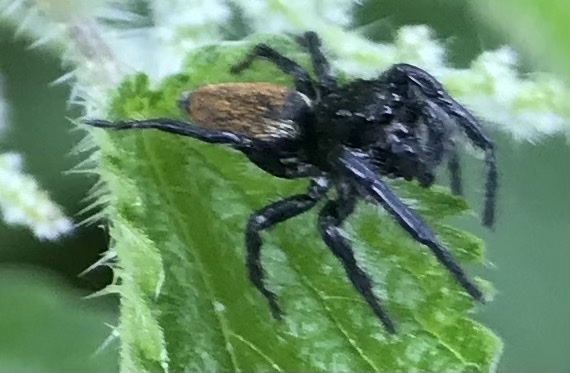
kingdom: Animalia
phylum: Arthropoda
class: Arachnida
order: Araneae
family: Salticidae
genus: Carrhotus
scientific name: Carrhotus xanthogramma
